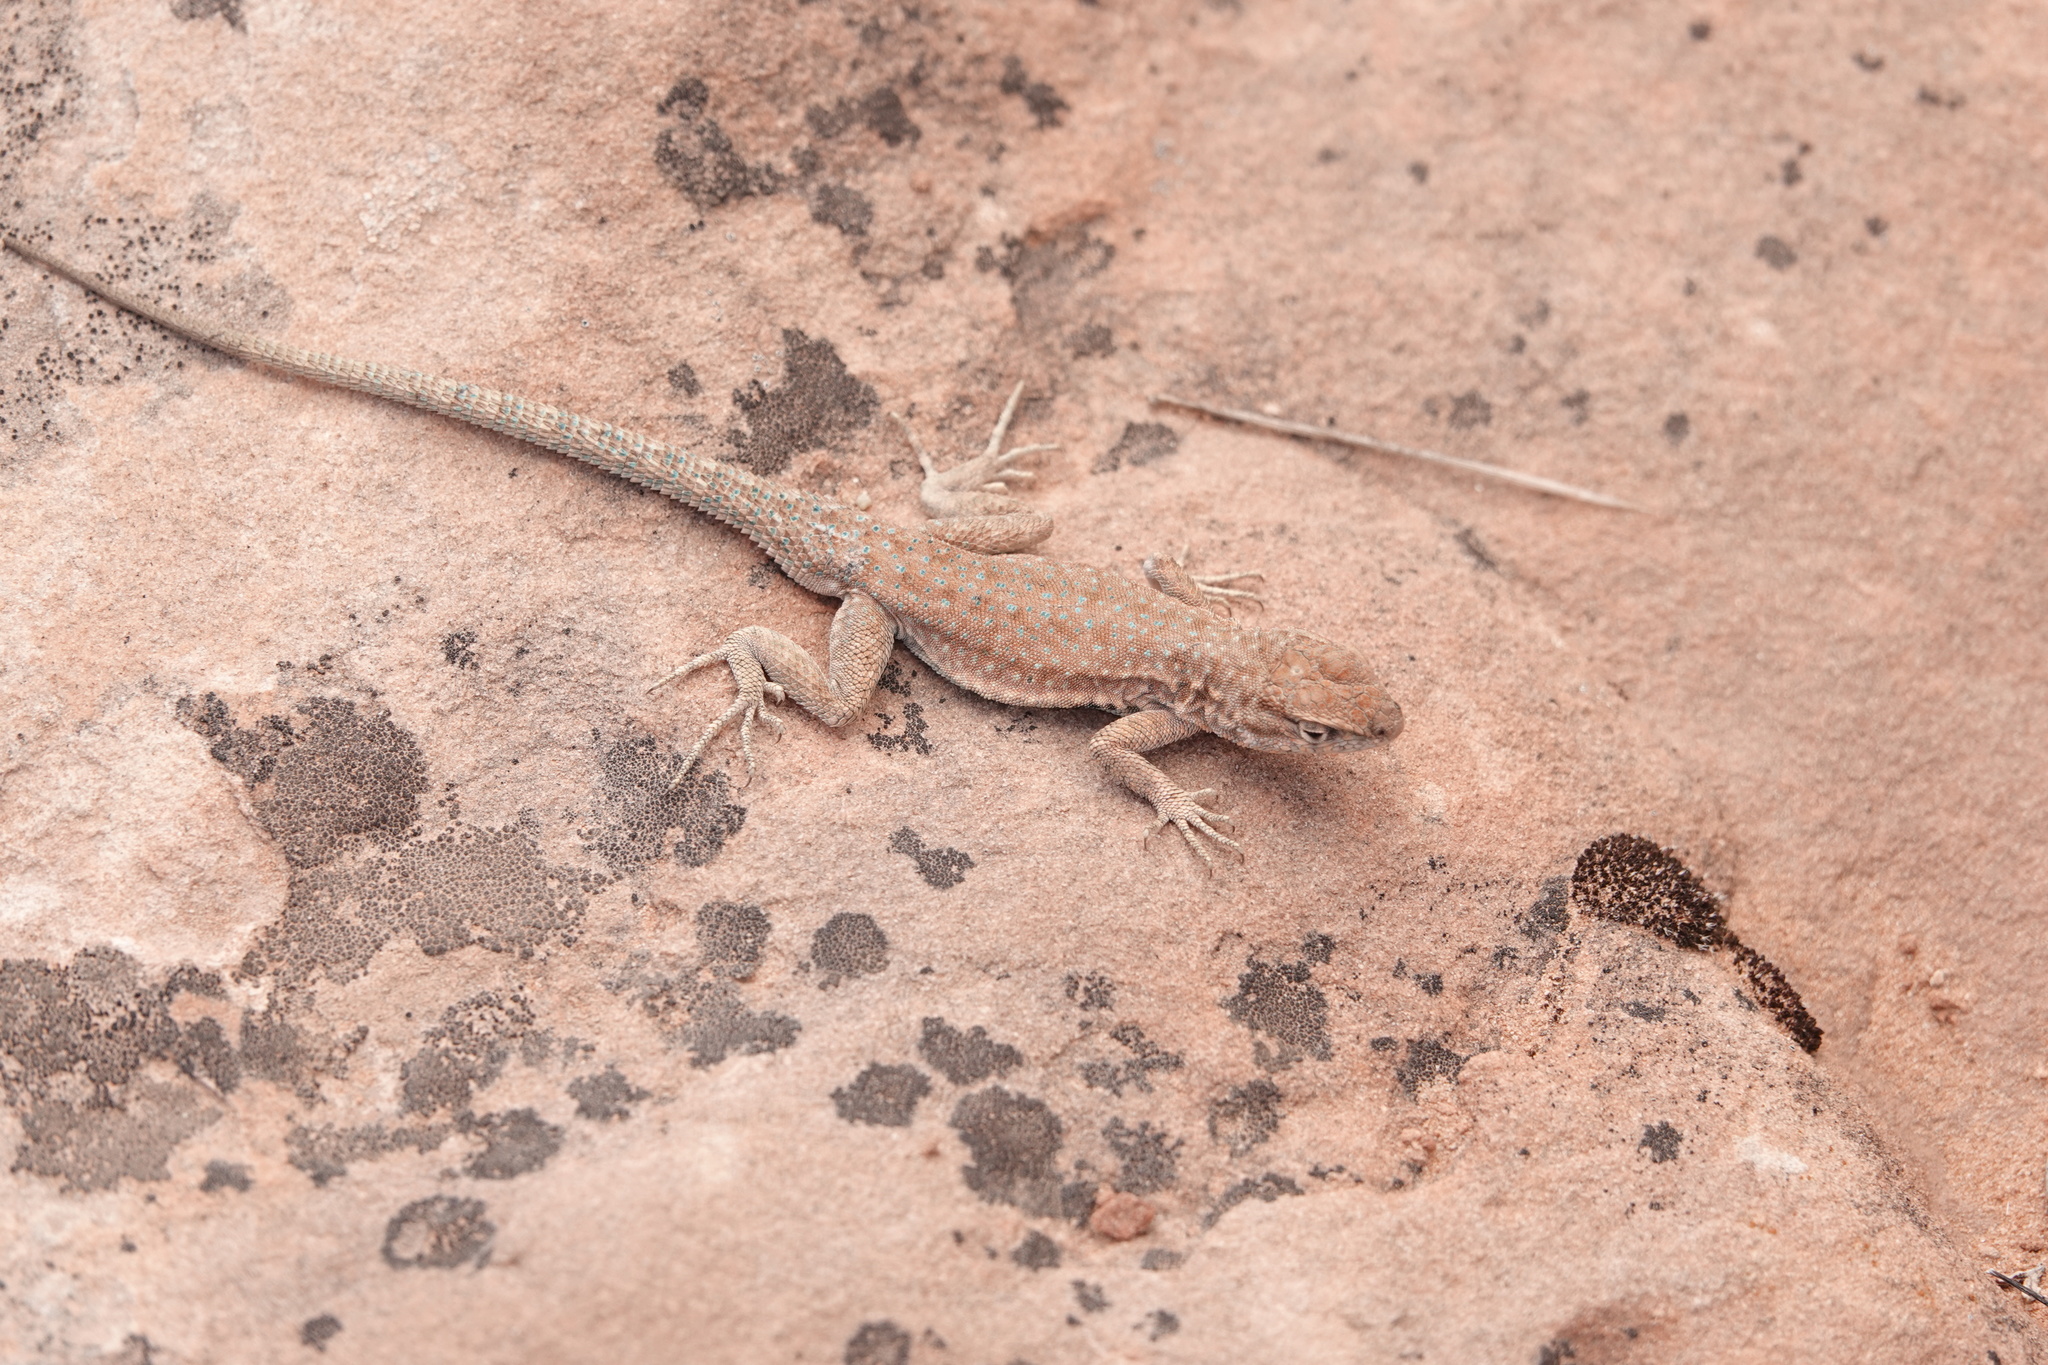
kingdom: Animalia
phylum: Chordata
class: Squamata
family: Phrynosomatidae
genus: Uta
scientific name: Uta stansburiana
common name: Side-blotched lizard
